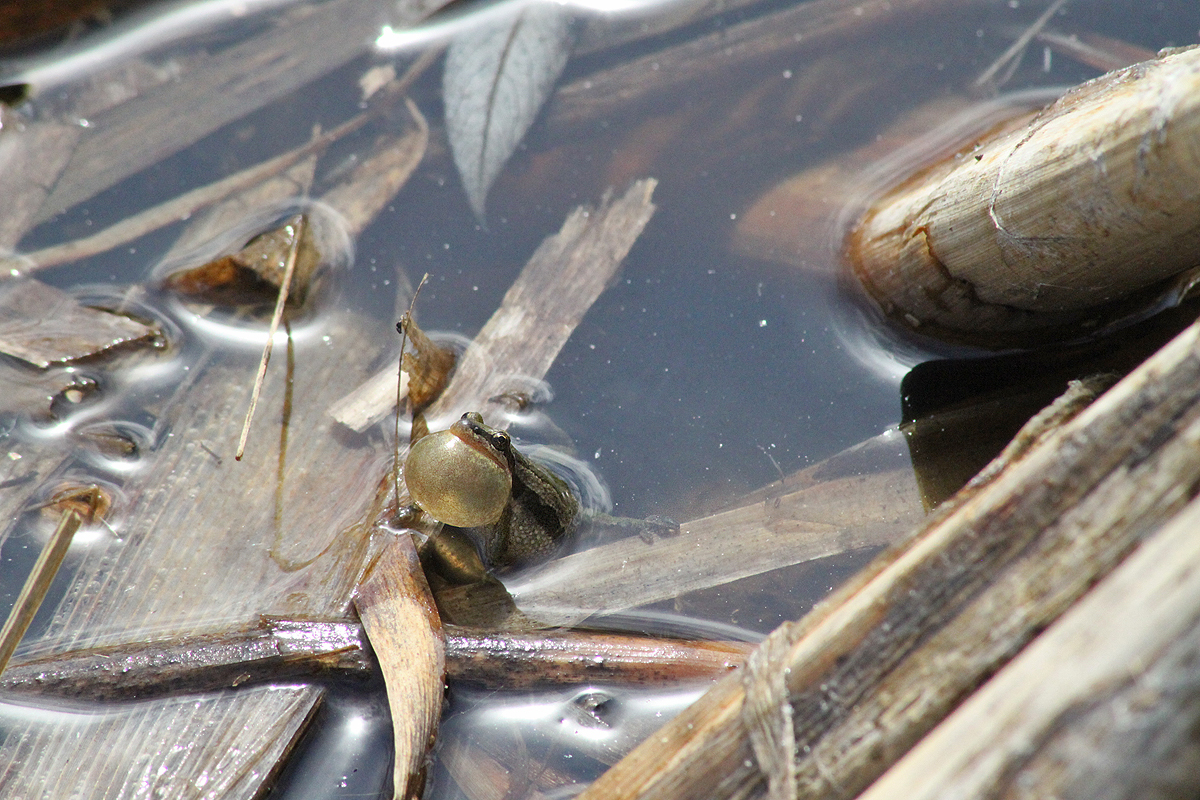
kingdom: Animalia
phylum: Chordata
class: Amphibia
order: Anura
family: Hylidae
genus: Pseudacris
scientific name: Pseudacris maculata
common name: Boreal chorus frog
